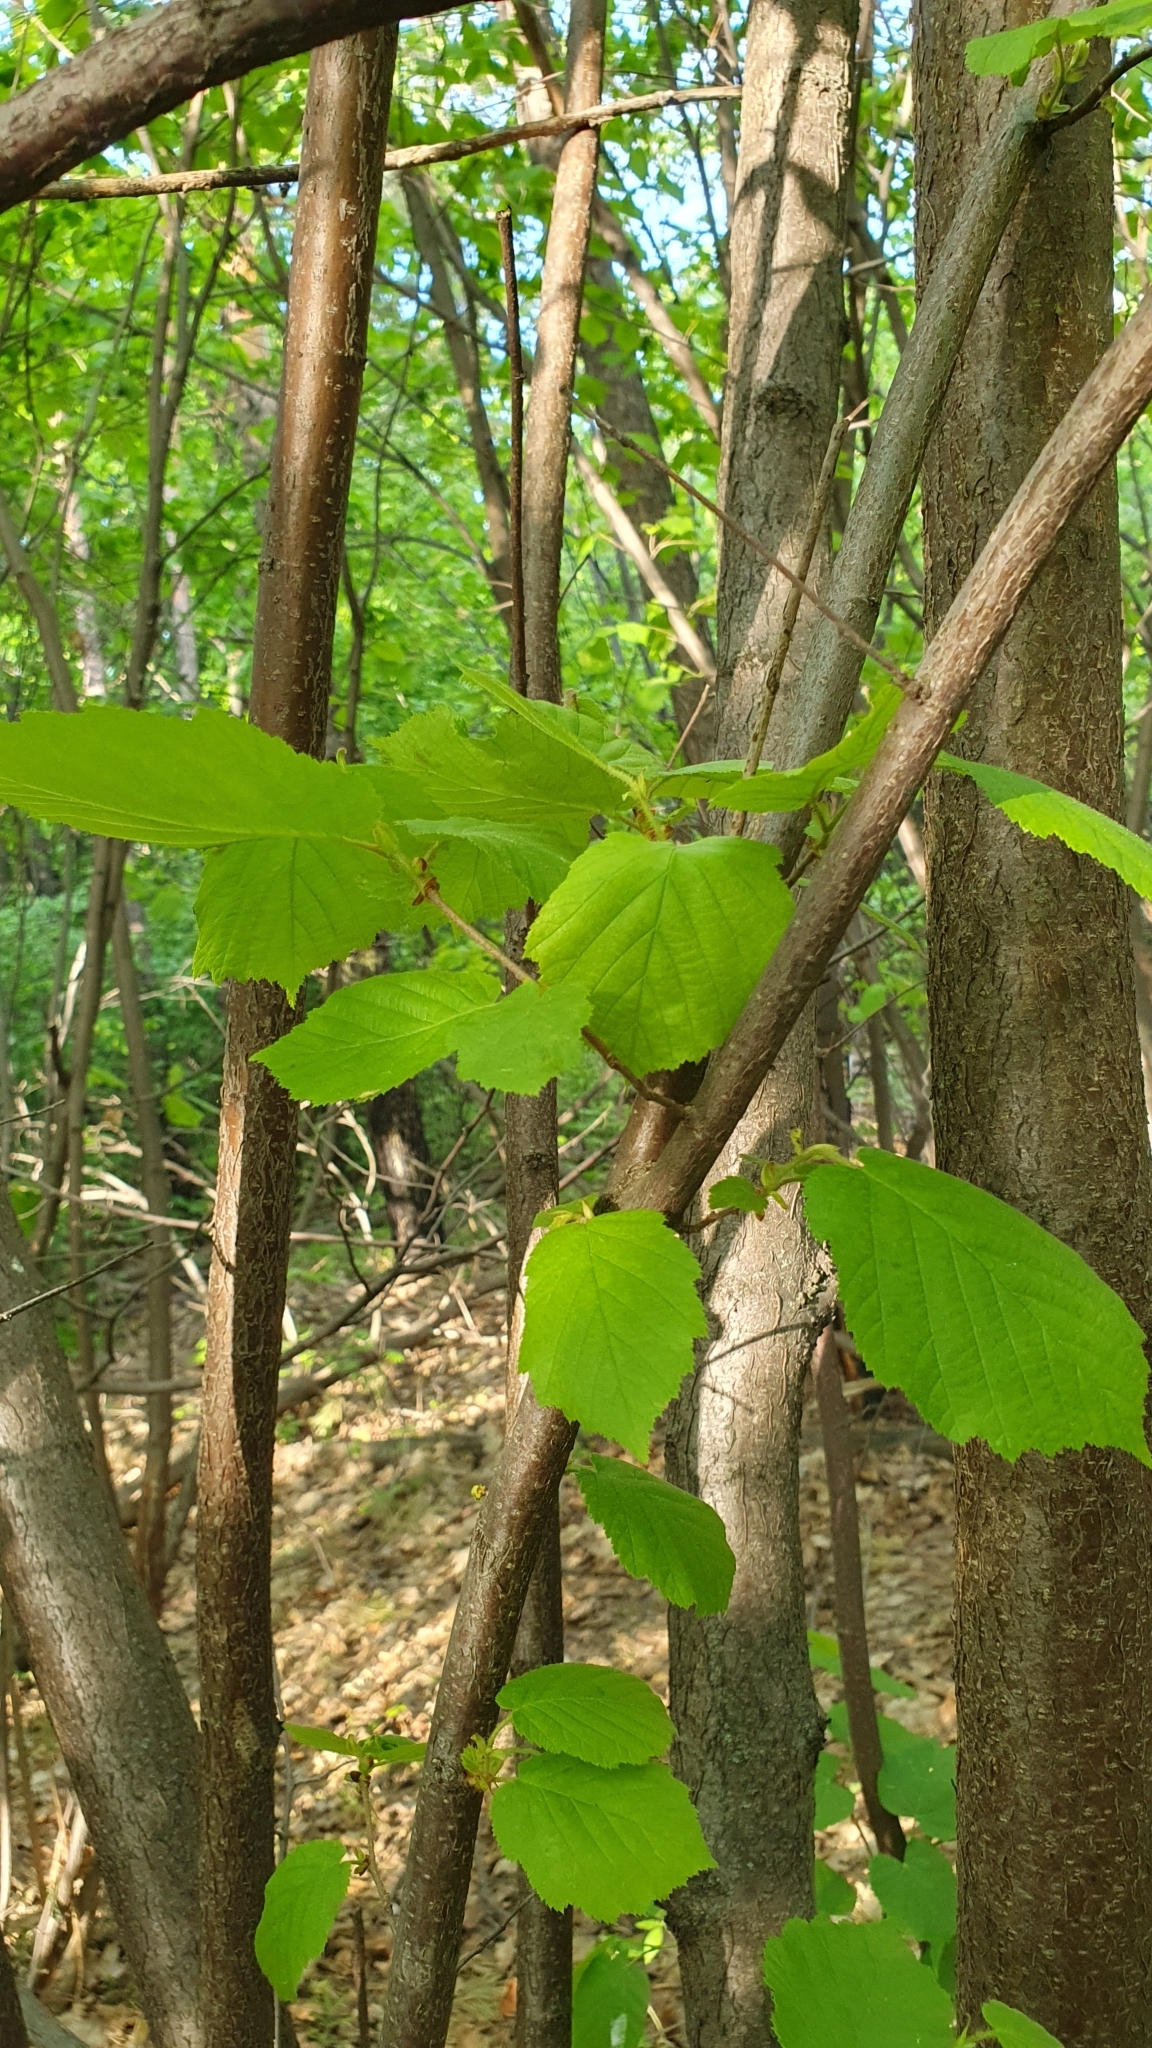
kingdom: Plantae
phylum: Tracheophyta
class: Magnoliopsida
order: Fagales
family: Betulaceae
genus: Corylus
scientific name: Corylus avellana
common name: European hazel
